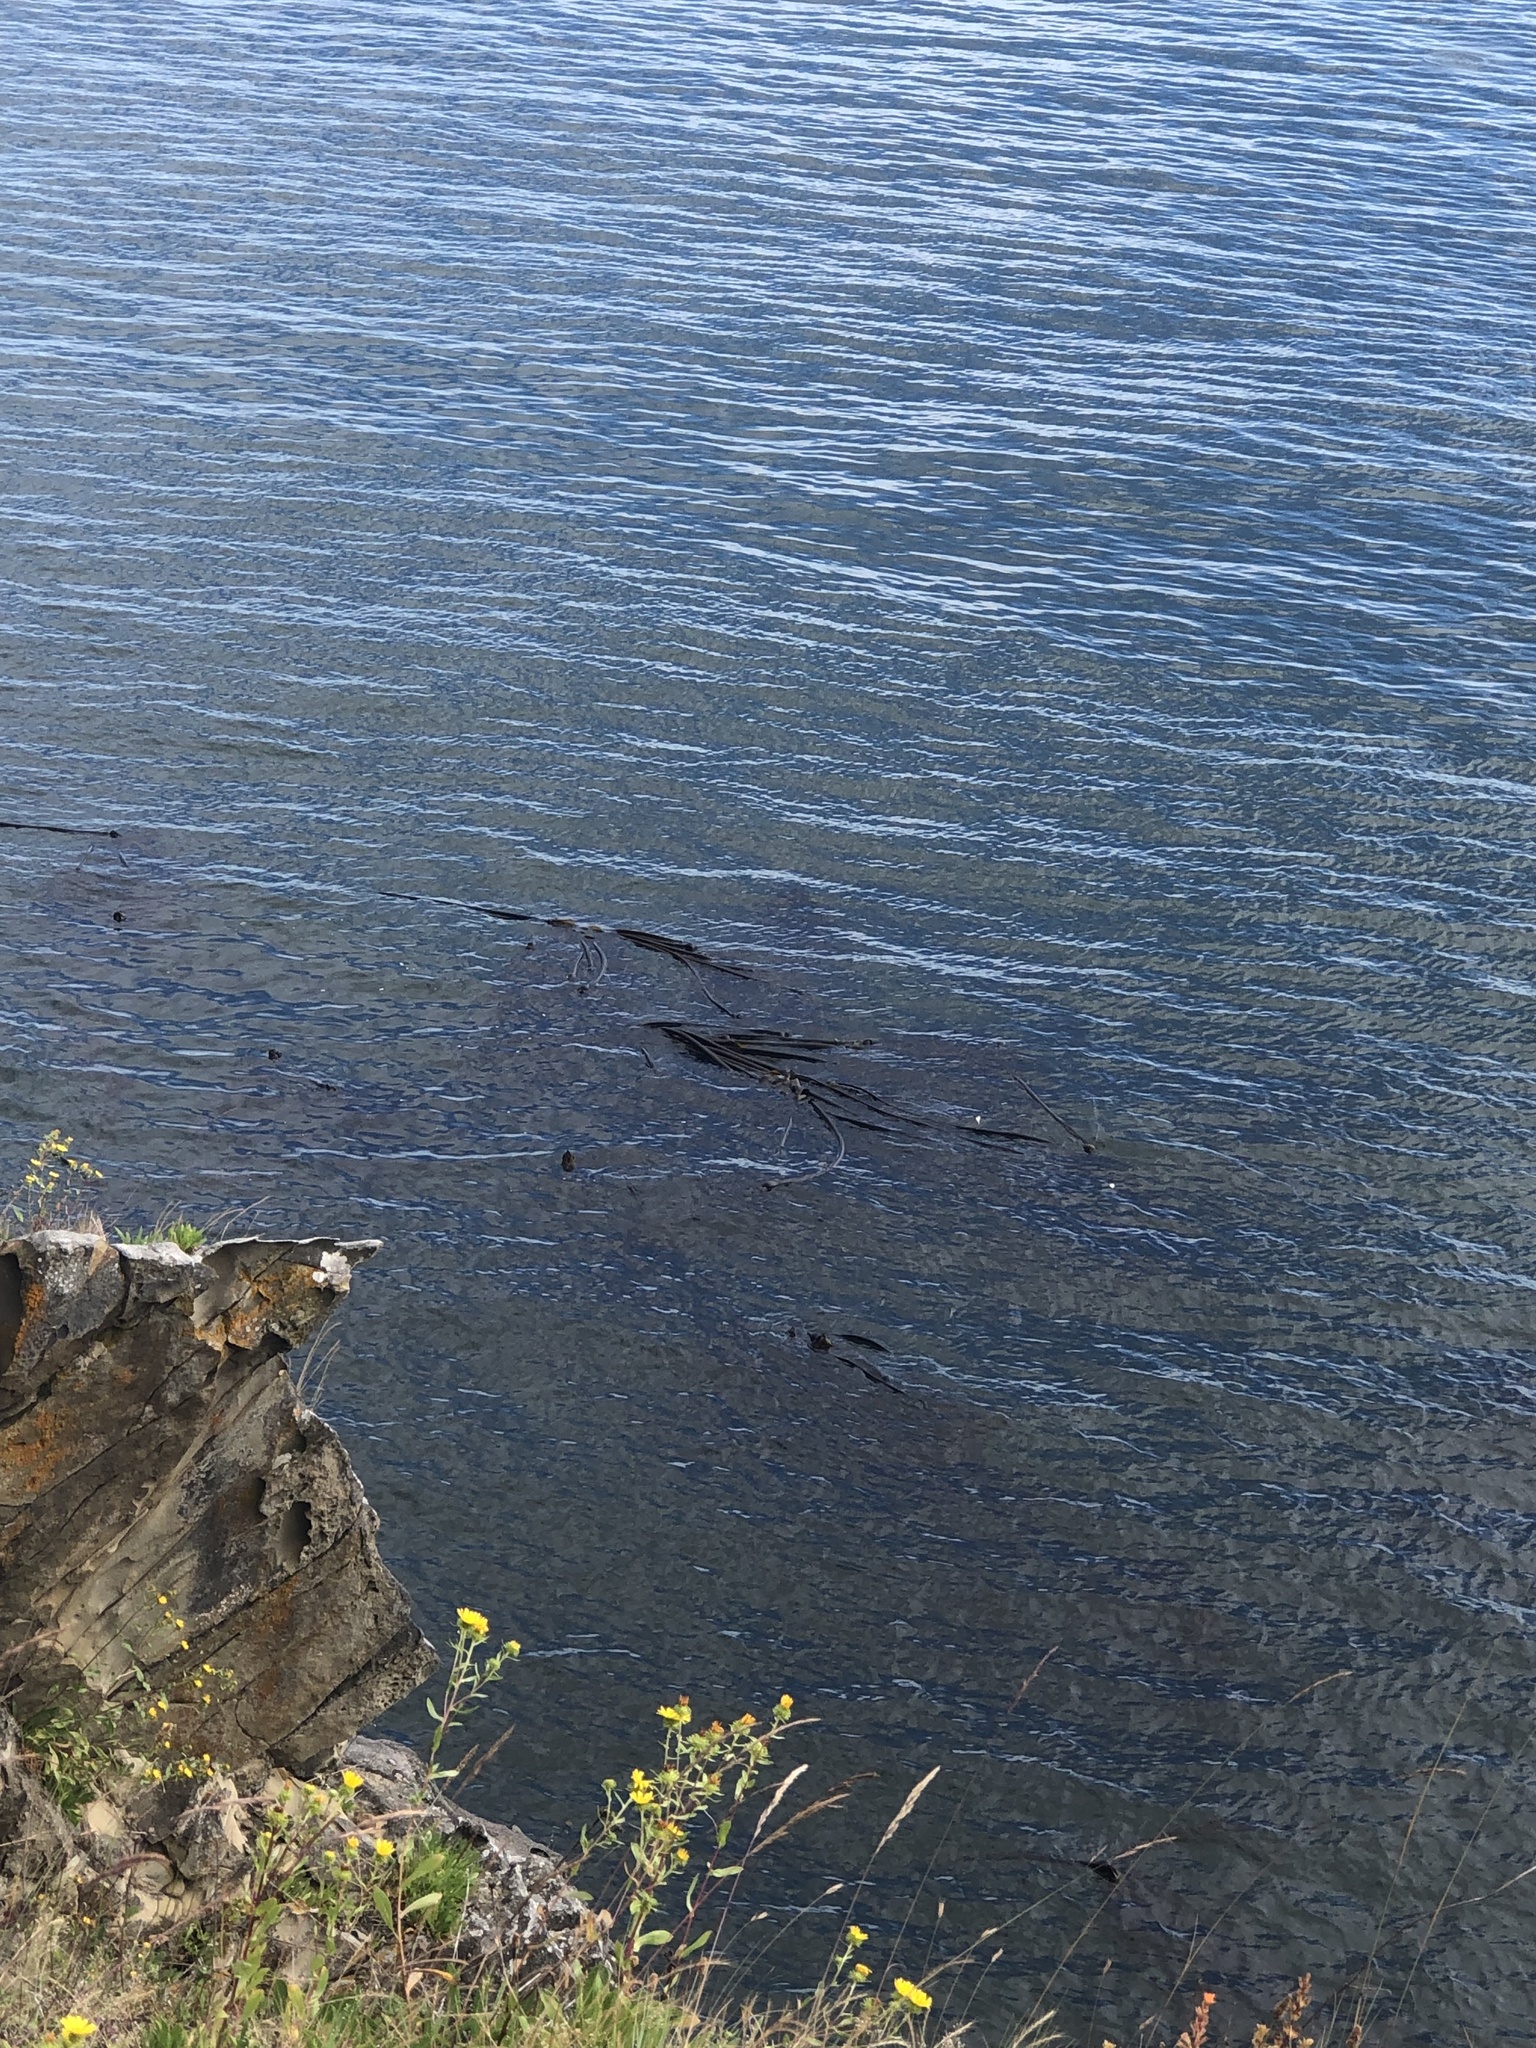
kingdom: Chromista
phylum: Ochrophyta
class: Phaeophyceae
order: Laminariales
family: Laminariaceae
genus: Nereocystis
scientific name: Nereocystis luetkeana
